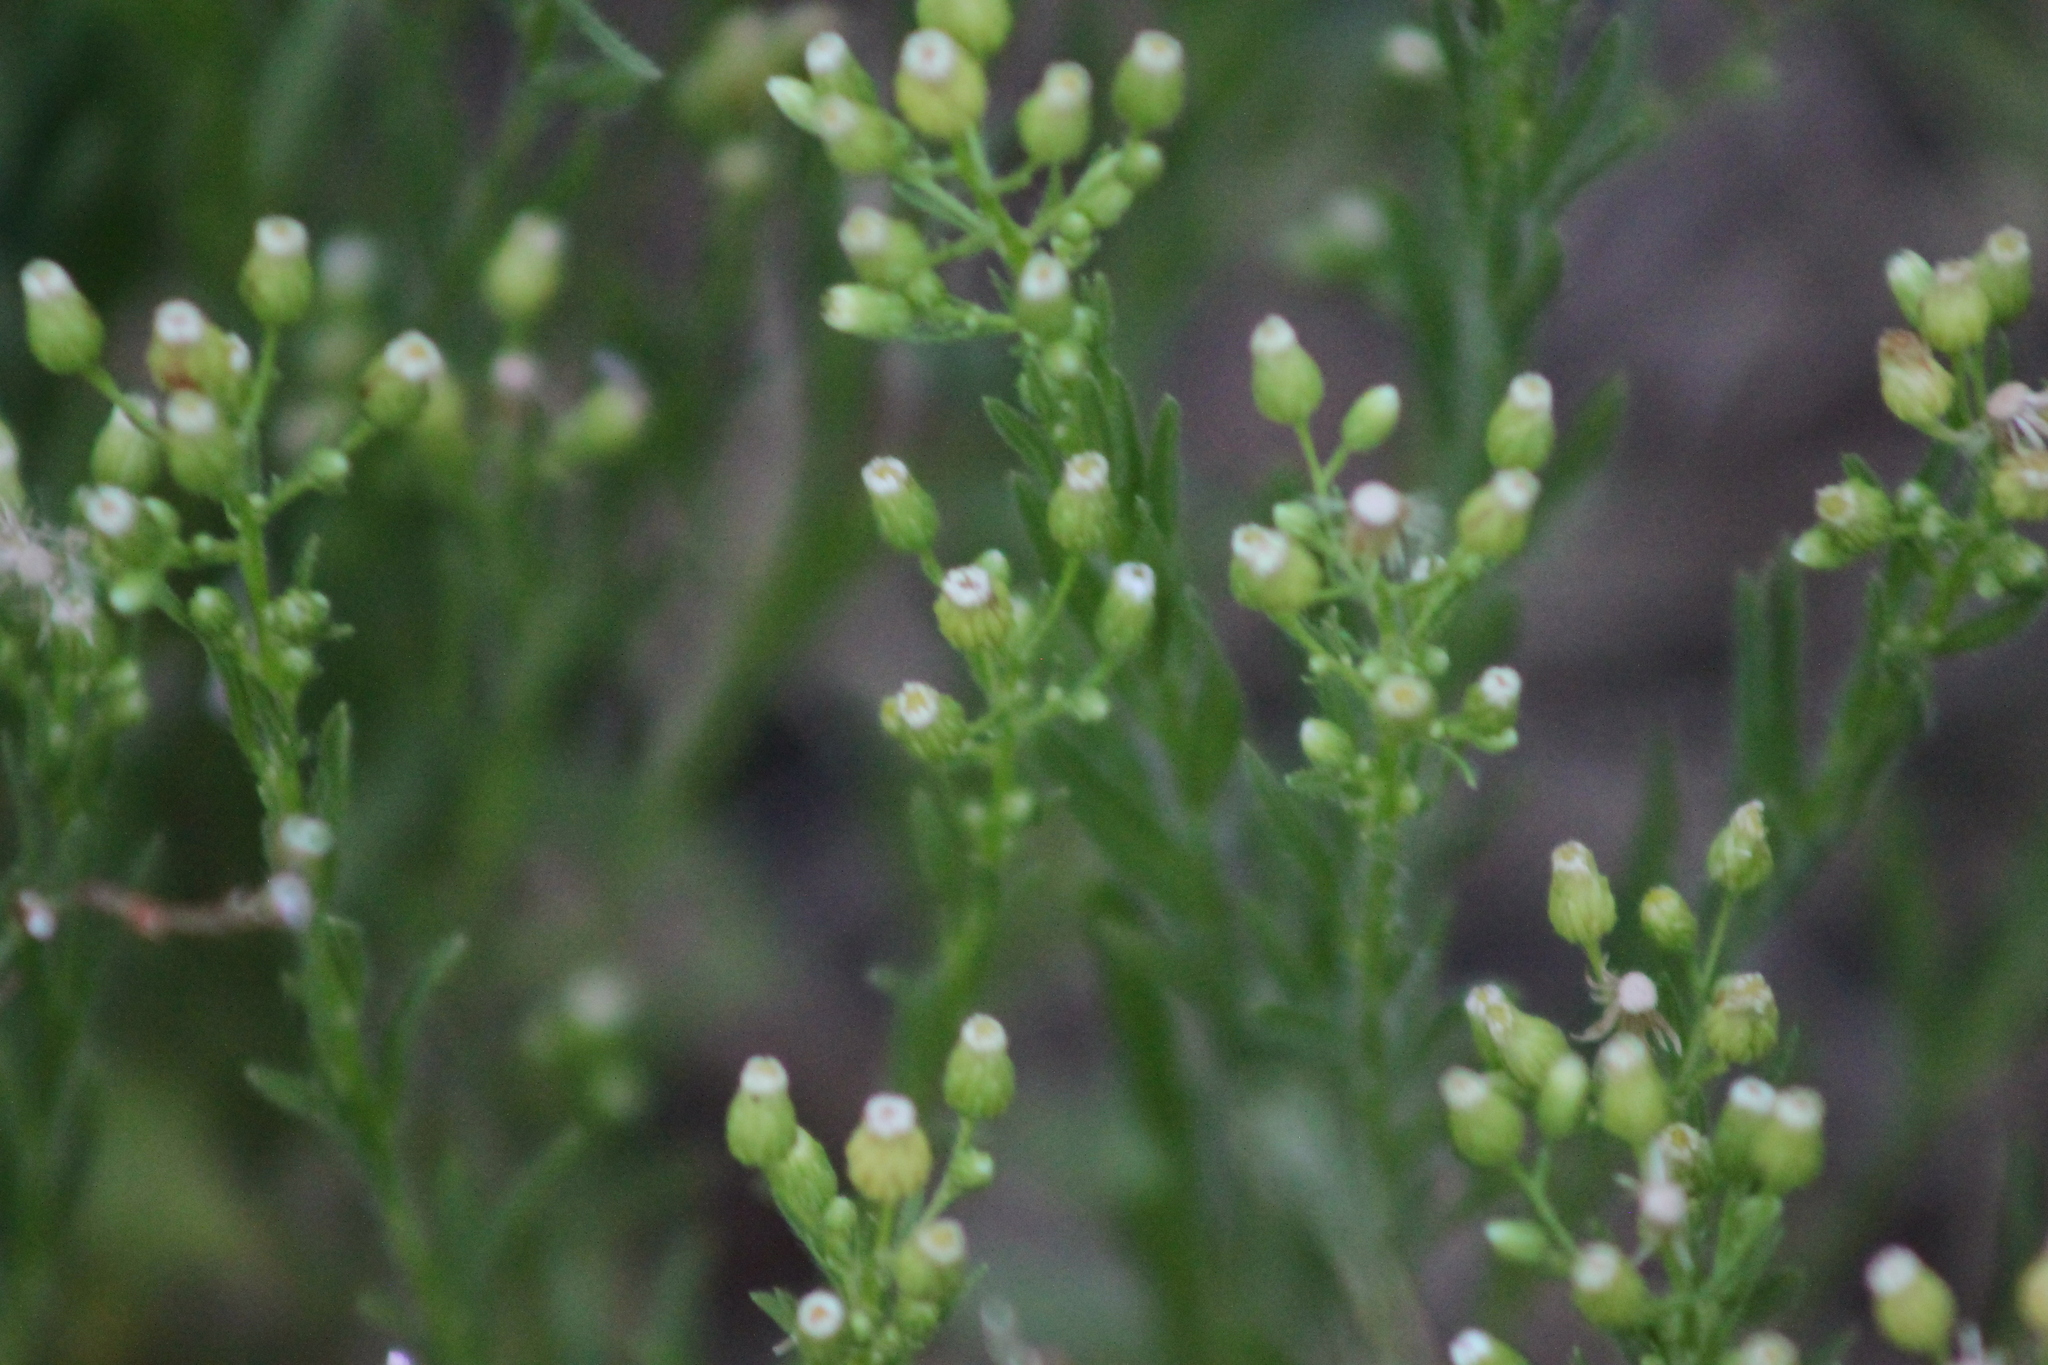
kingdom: Plantae
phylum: Tracheophyta
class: Magnoliopsida
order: Asterales
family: Asteraceae
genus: Erigeron
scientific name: Erigeron canadensis
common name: Canadian fleabane
